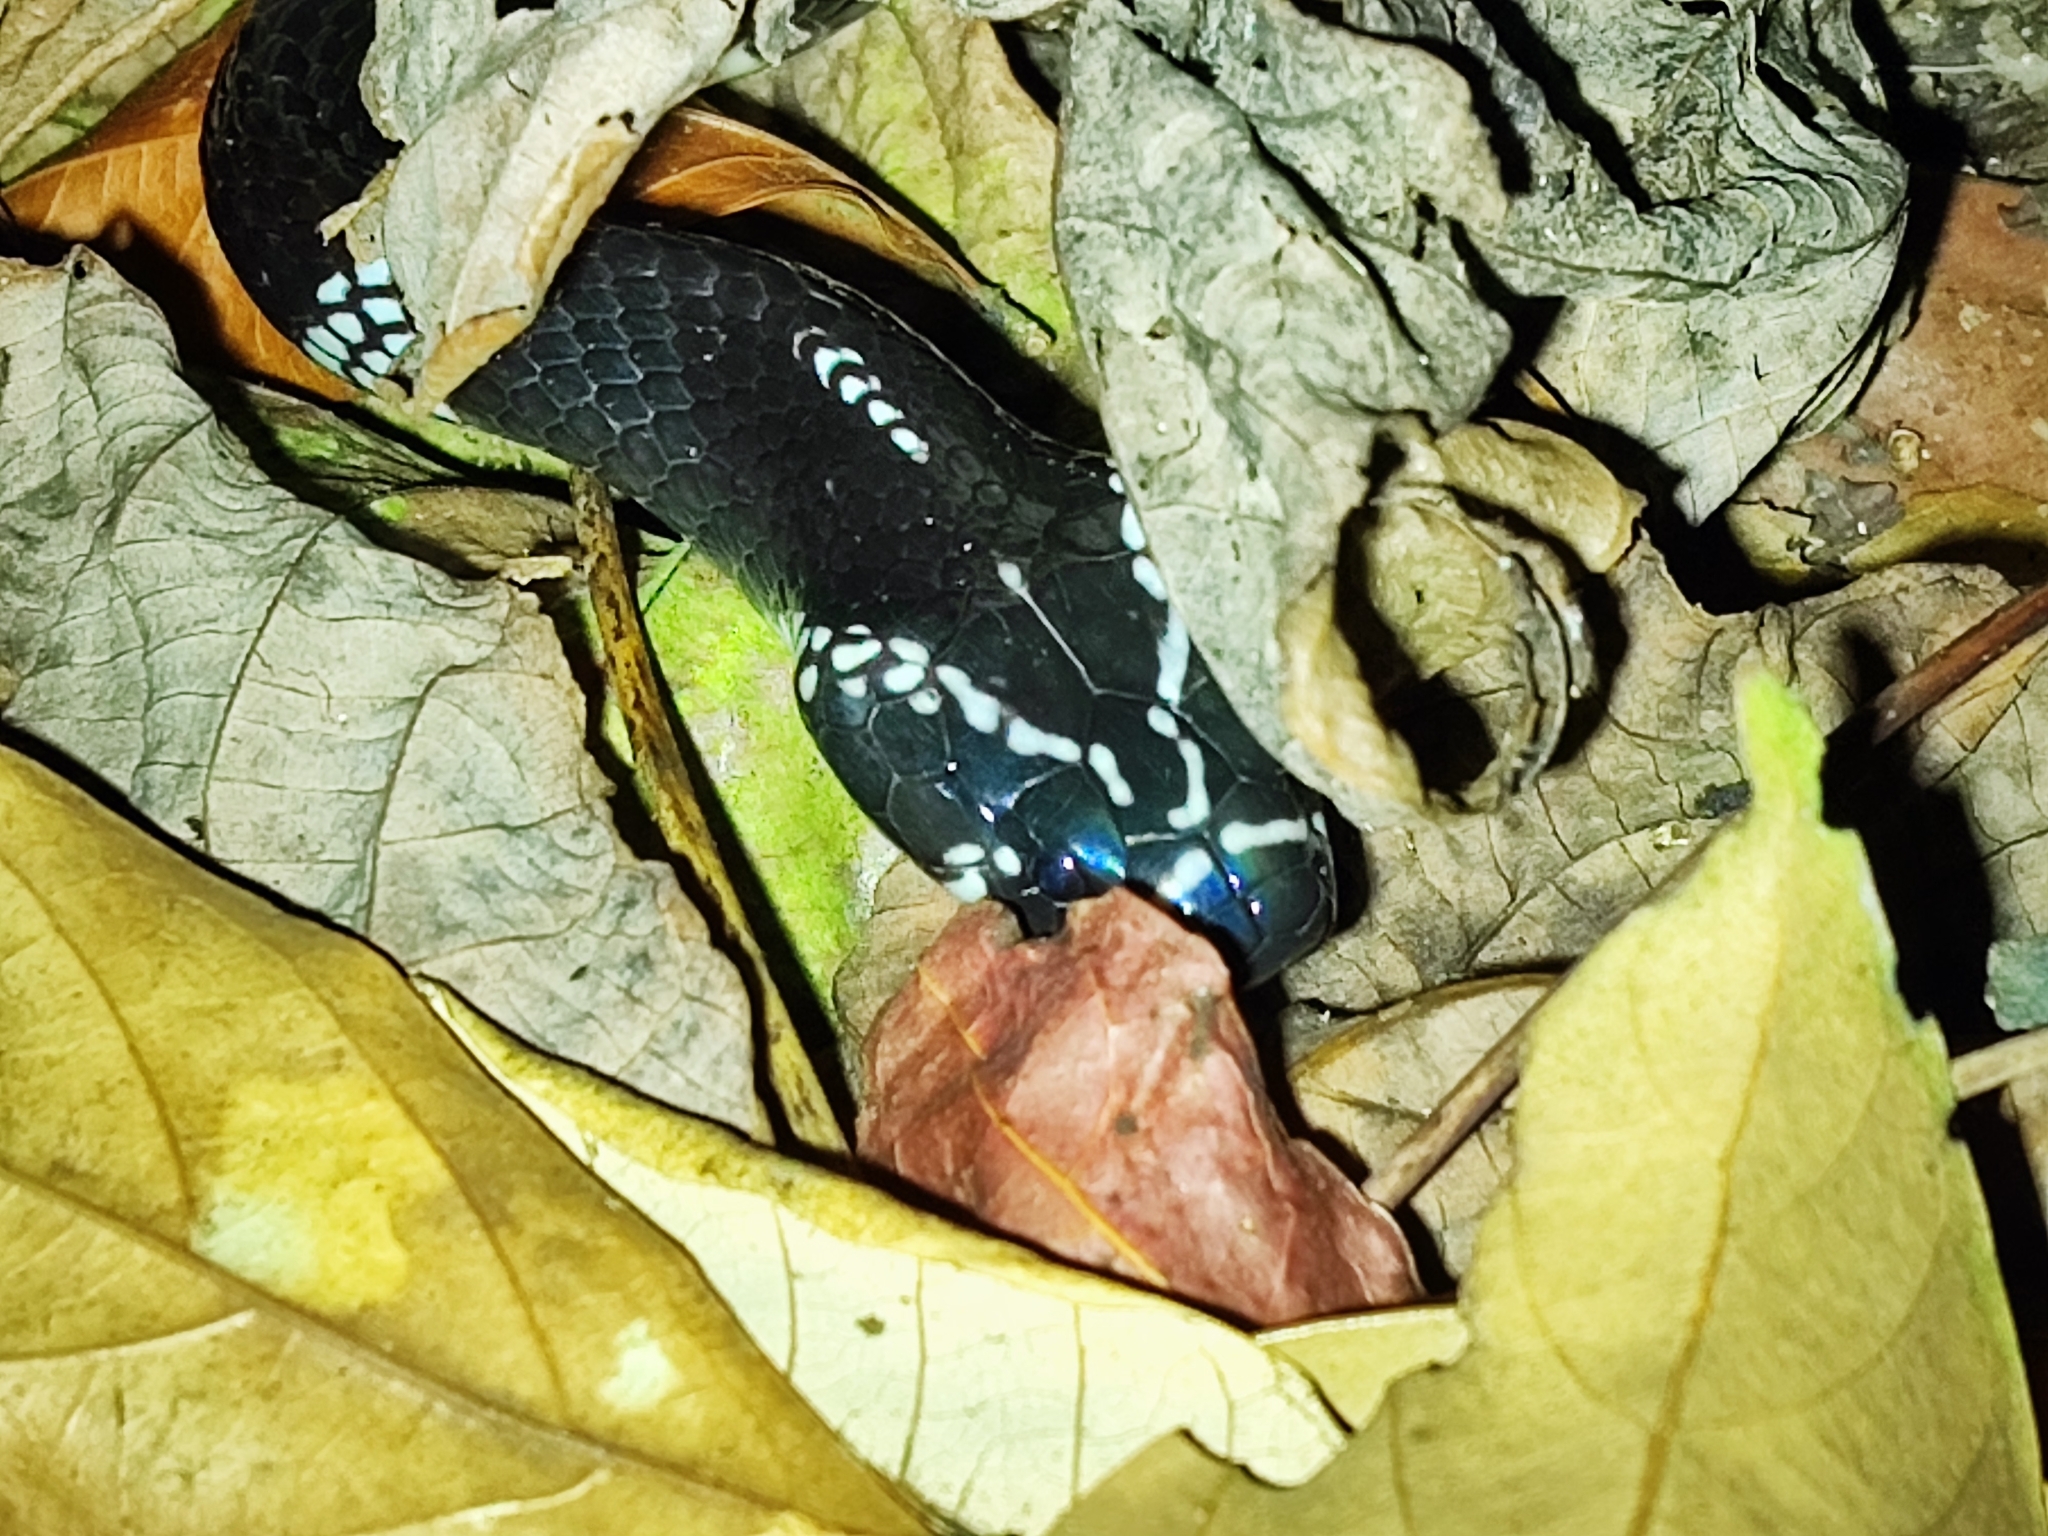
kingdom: Animalia
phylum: Chordata
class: Squamata
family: Elapidae
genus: Bungarus
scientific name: Bungarus slowinskii
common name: Red river krait
